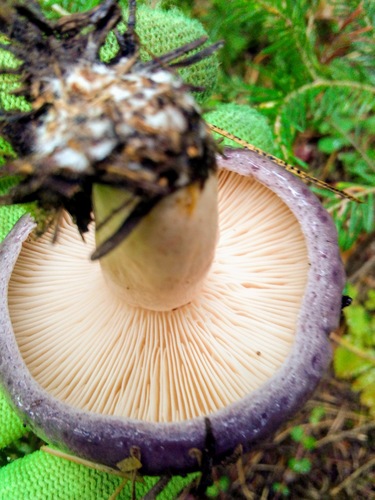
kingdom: Fungi
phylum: Basidiomycota
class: Agaricomycetes
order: Russulales
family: Russulaceae
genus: Lactarius
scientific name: Lactarius trivialis
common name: Tacked milkcap
